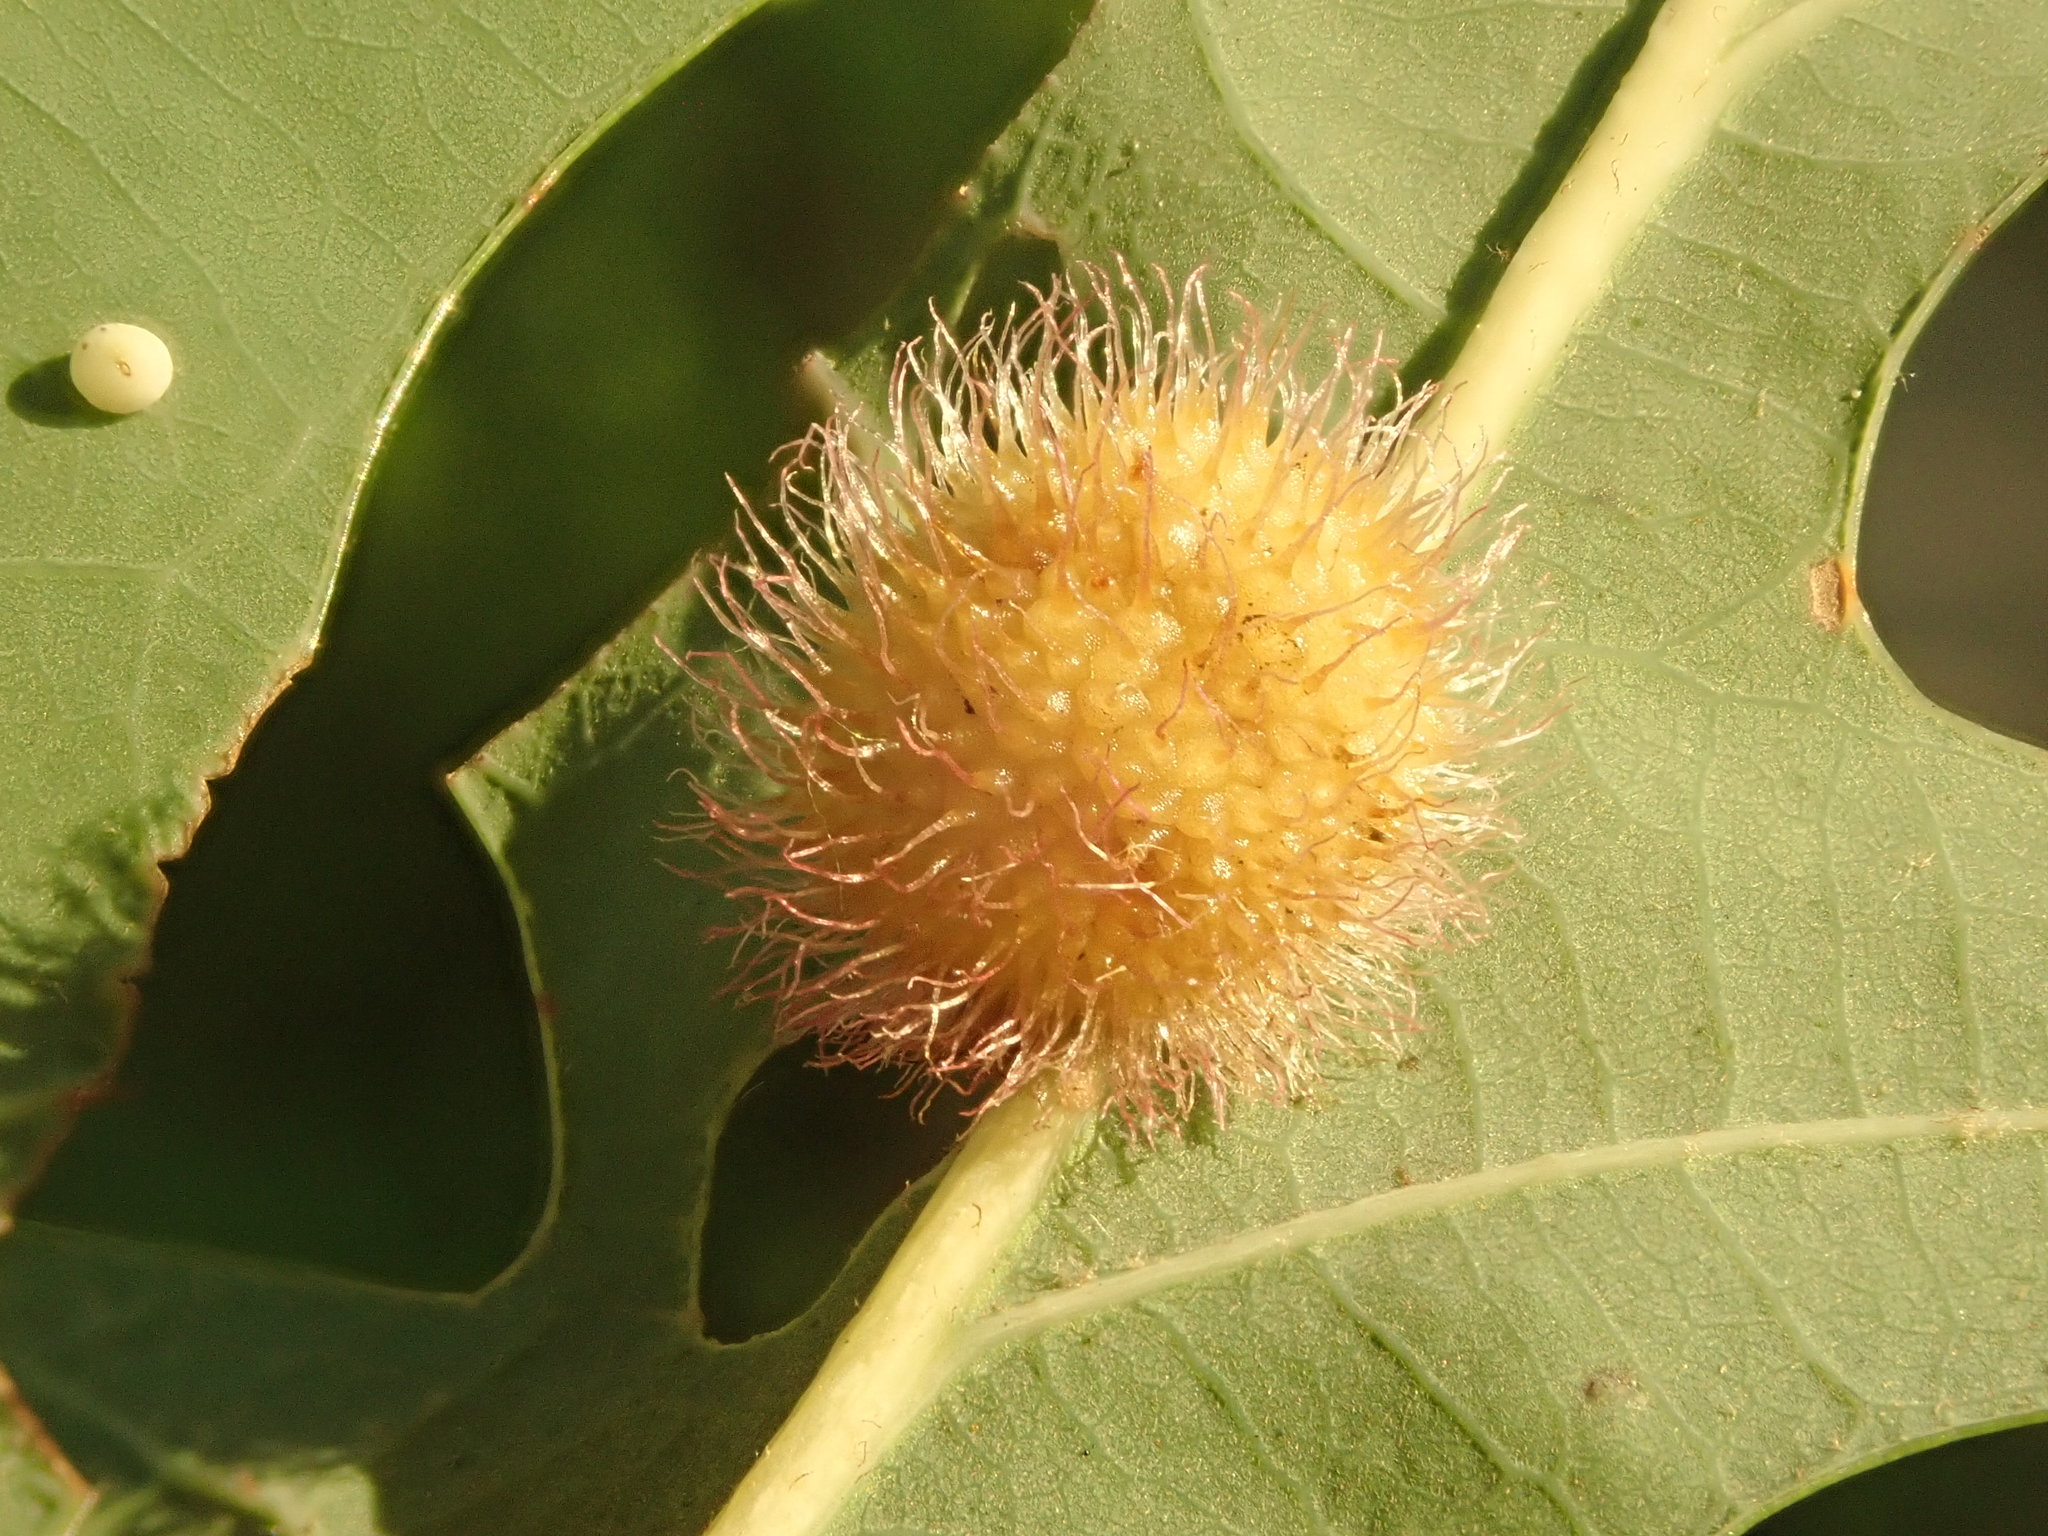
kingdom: Animalia
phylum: Arthropoda
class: Insecta
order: Hymenoptera
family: Cynipidae
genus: Acraspis
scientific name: Acraspis erinacei
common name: Hedgehog gall wasp
